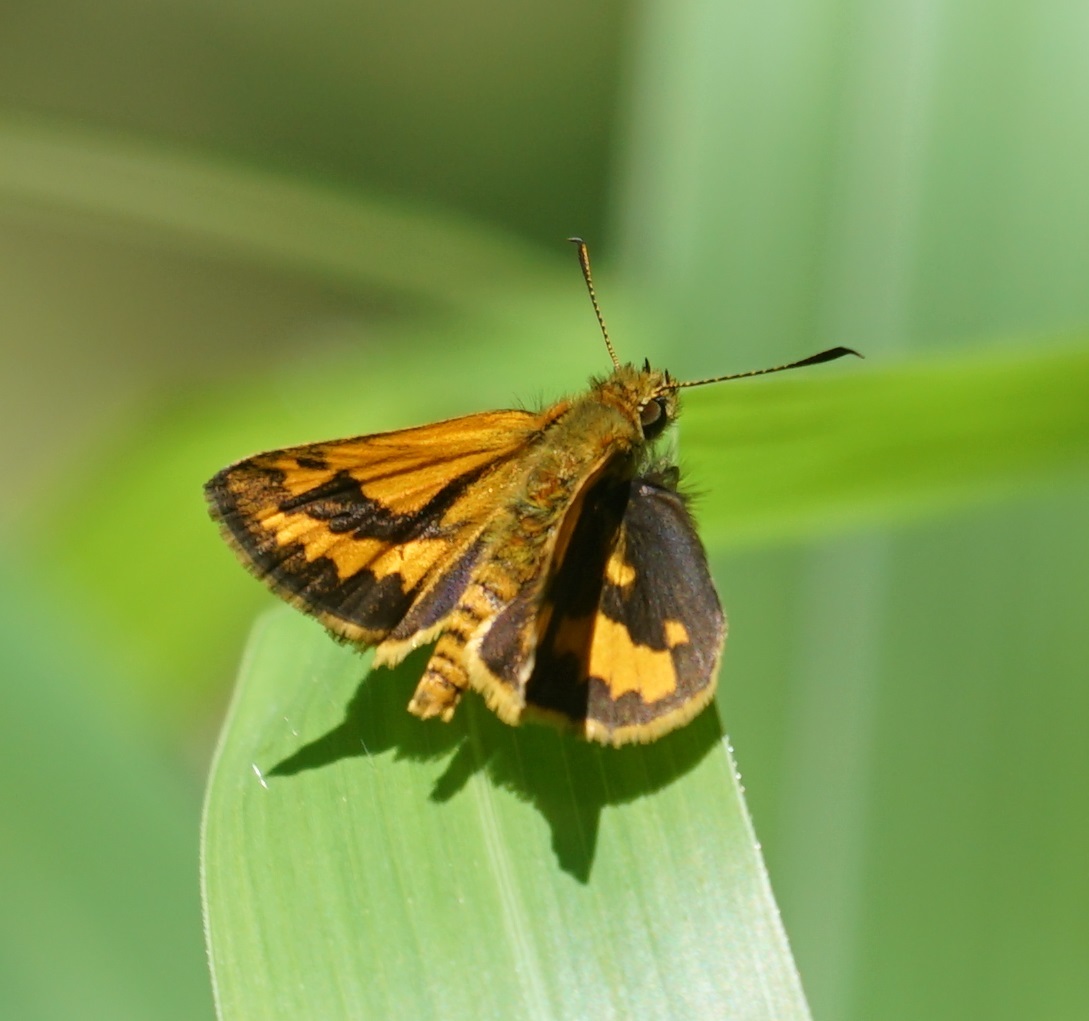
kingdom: Animalia
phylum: Arthropoda
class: Insecta
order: Lepidoptera
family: Hesperiidae
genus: Suniana
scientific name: Suniana sunias
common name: Wide-brand grass-dart
